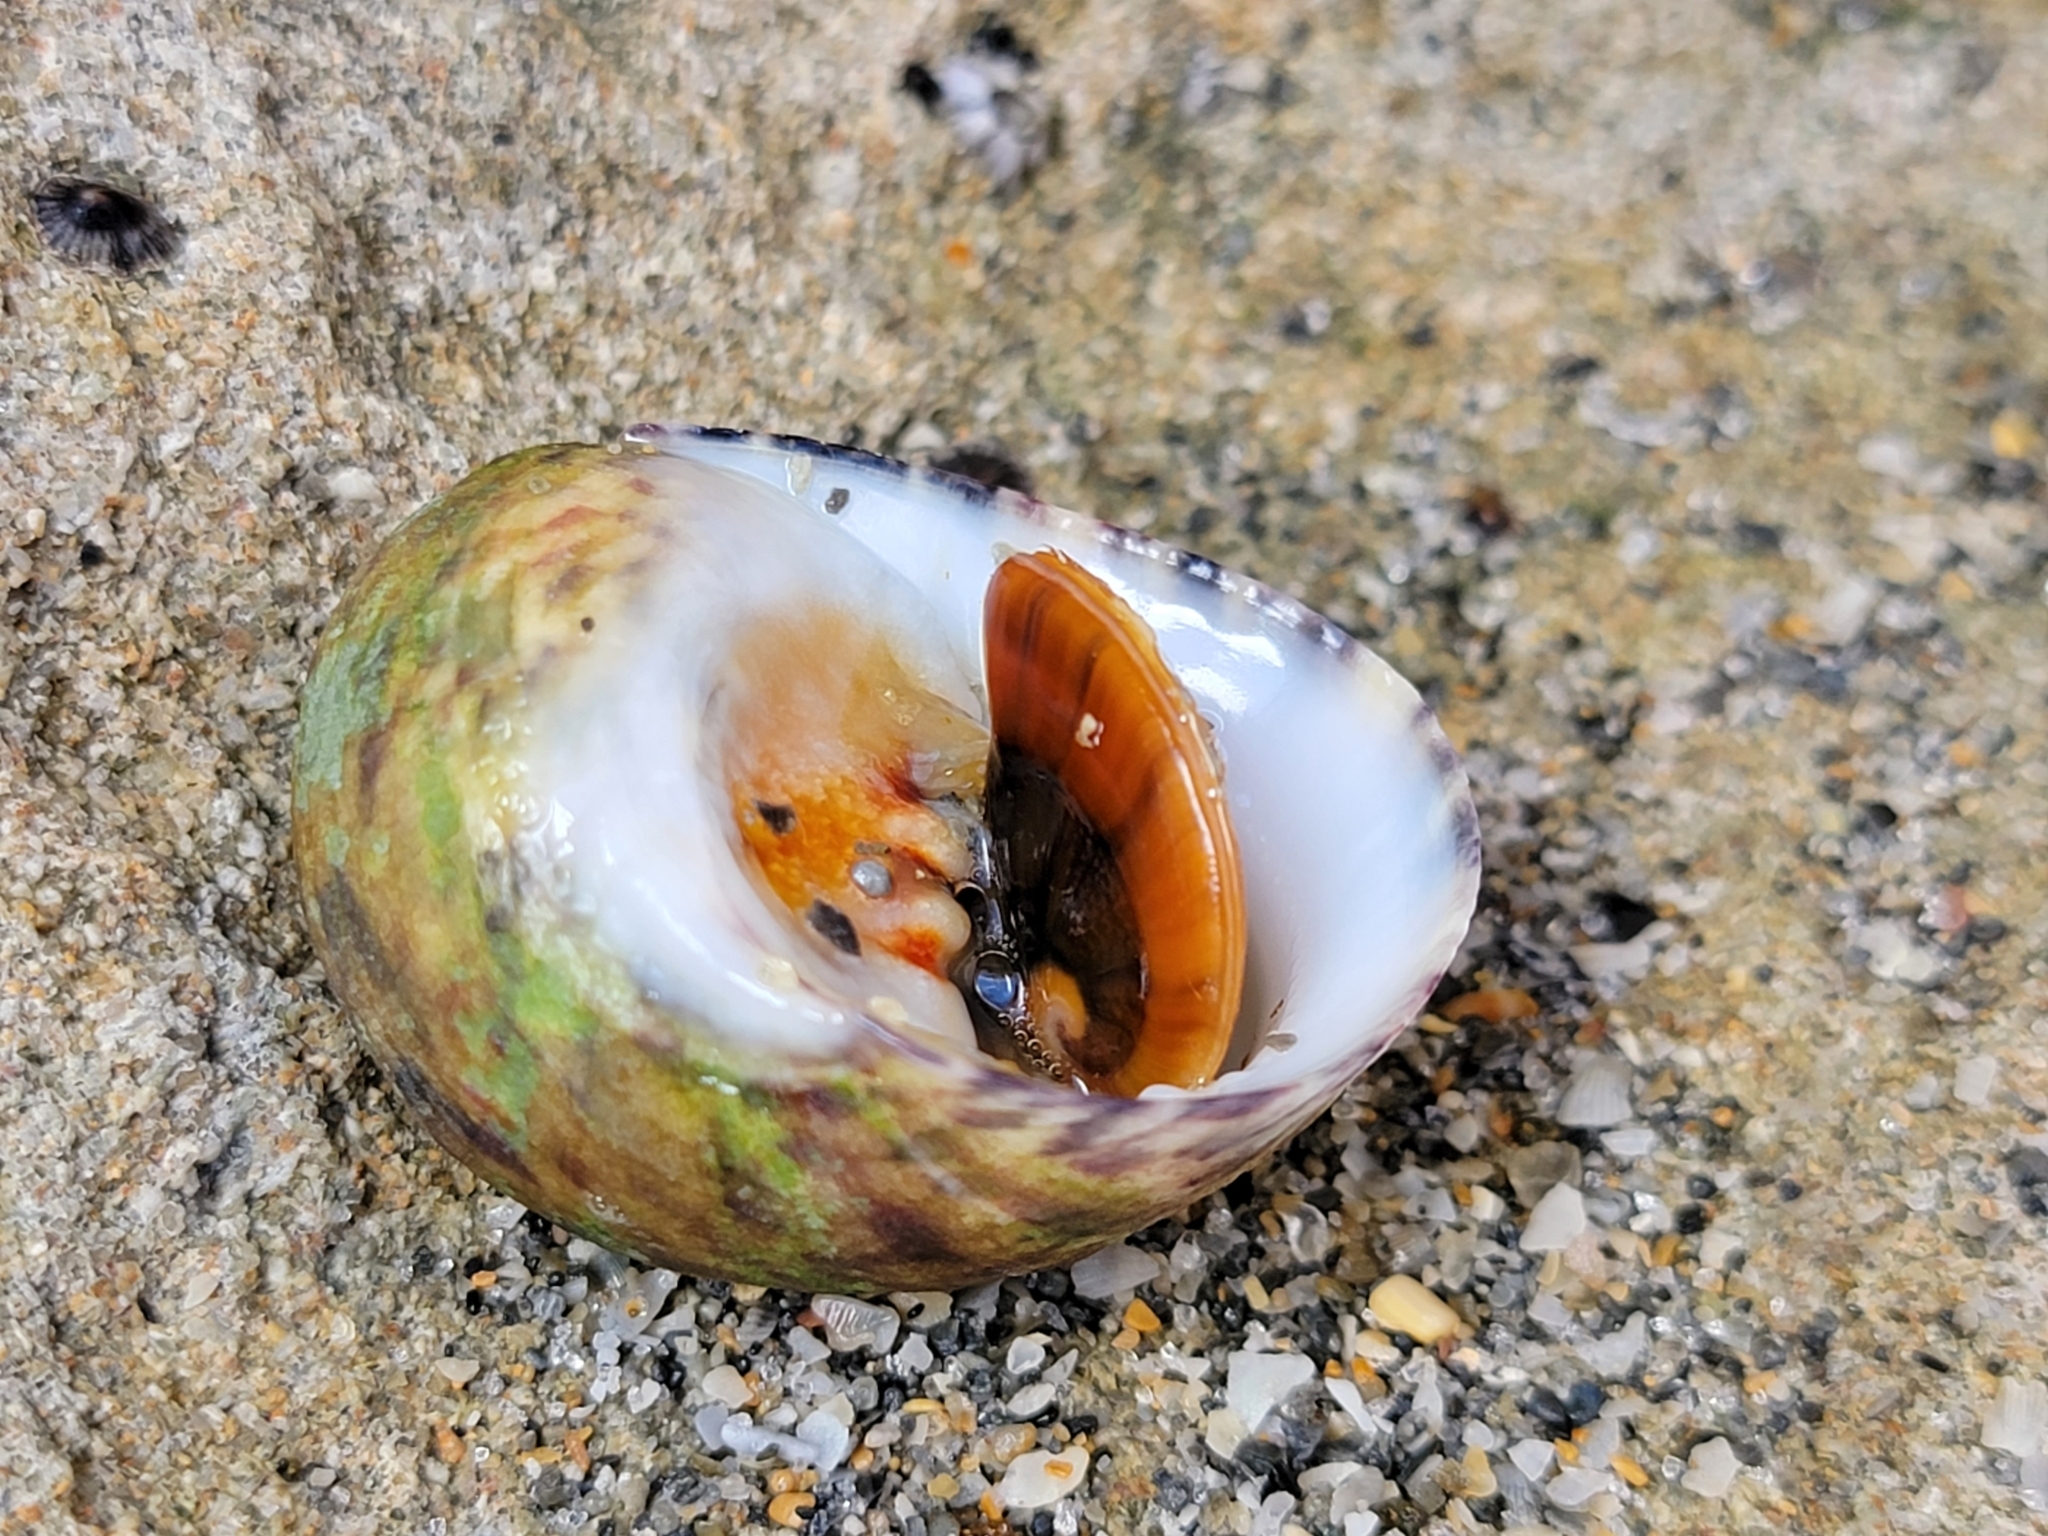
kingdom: Animalia
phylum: Mollusca
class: Gastropoda
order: Cycloneritida
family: Neritidae
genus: Nerita
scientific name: Nerita peloronta
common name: Bleeding tooth
